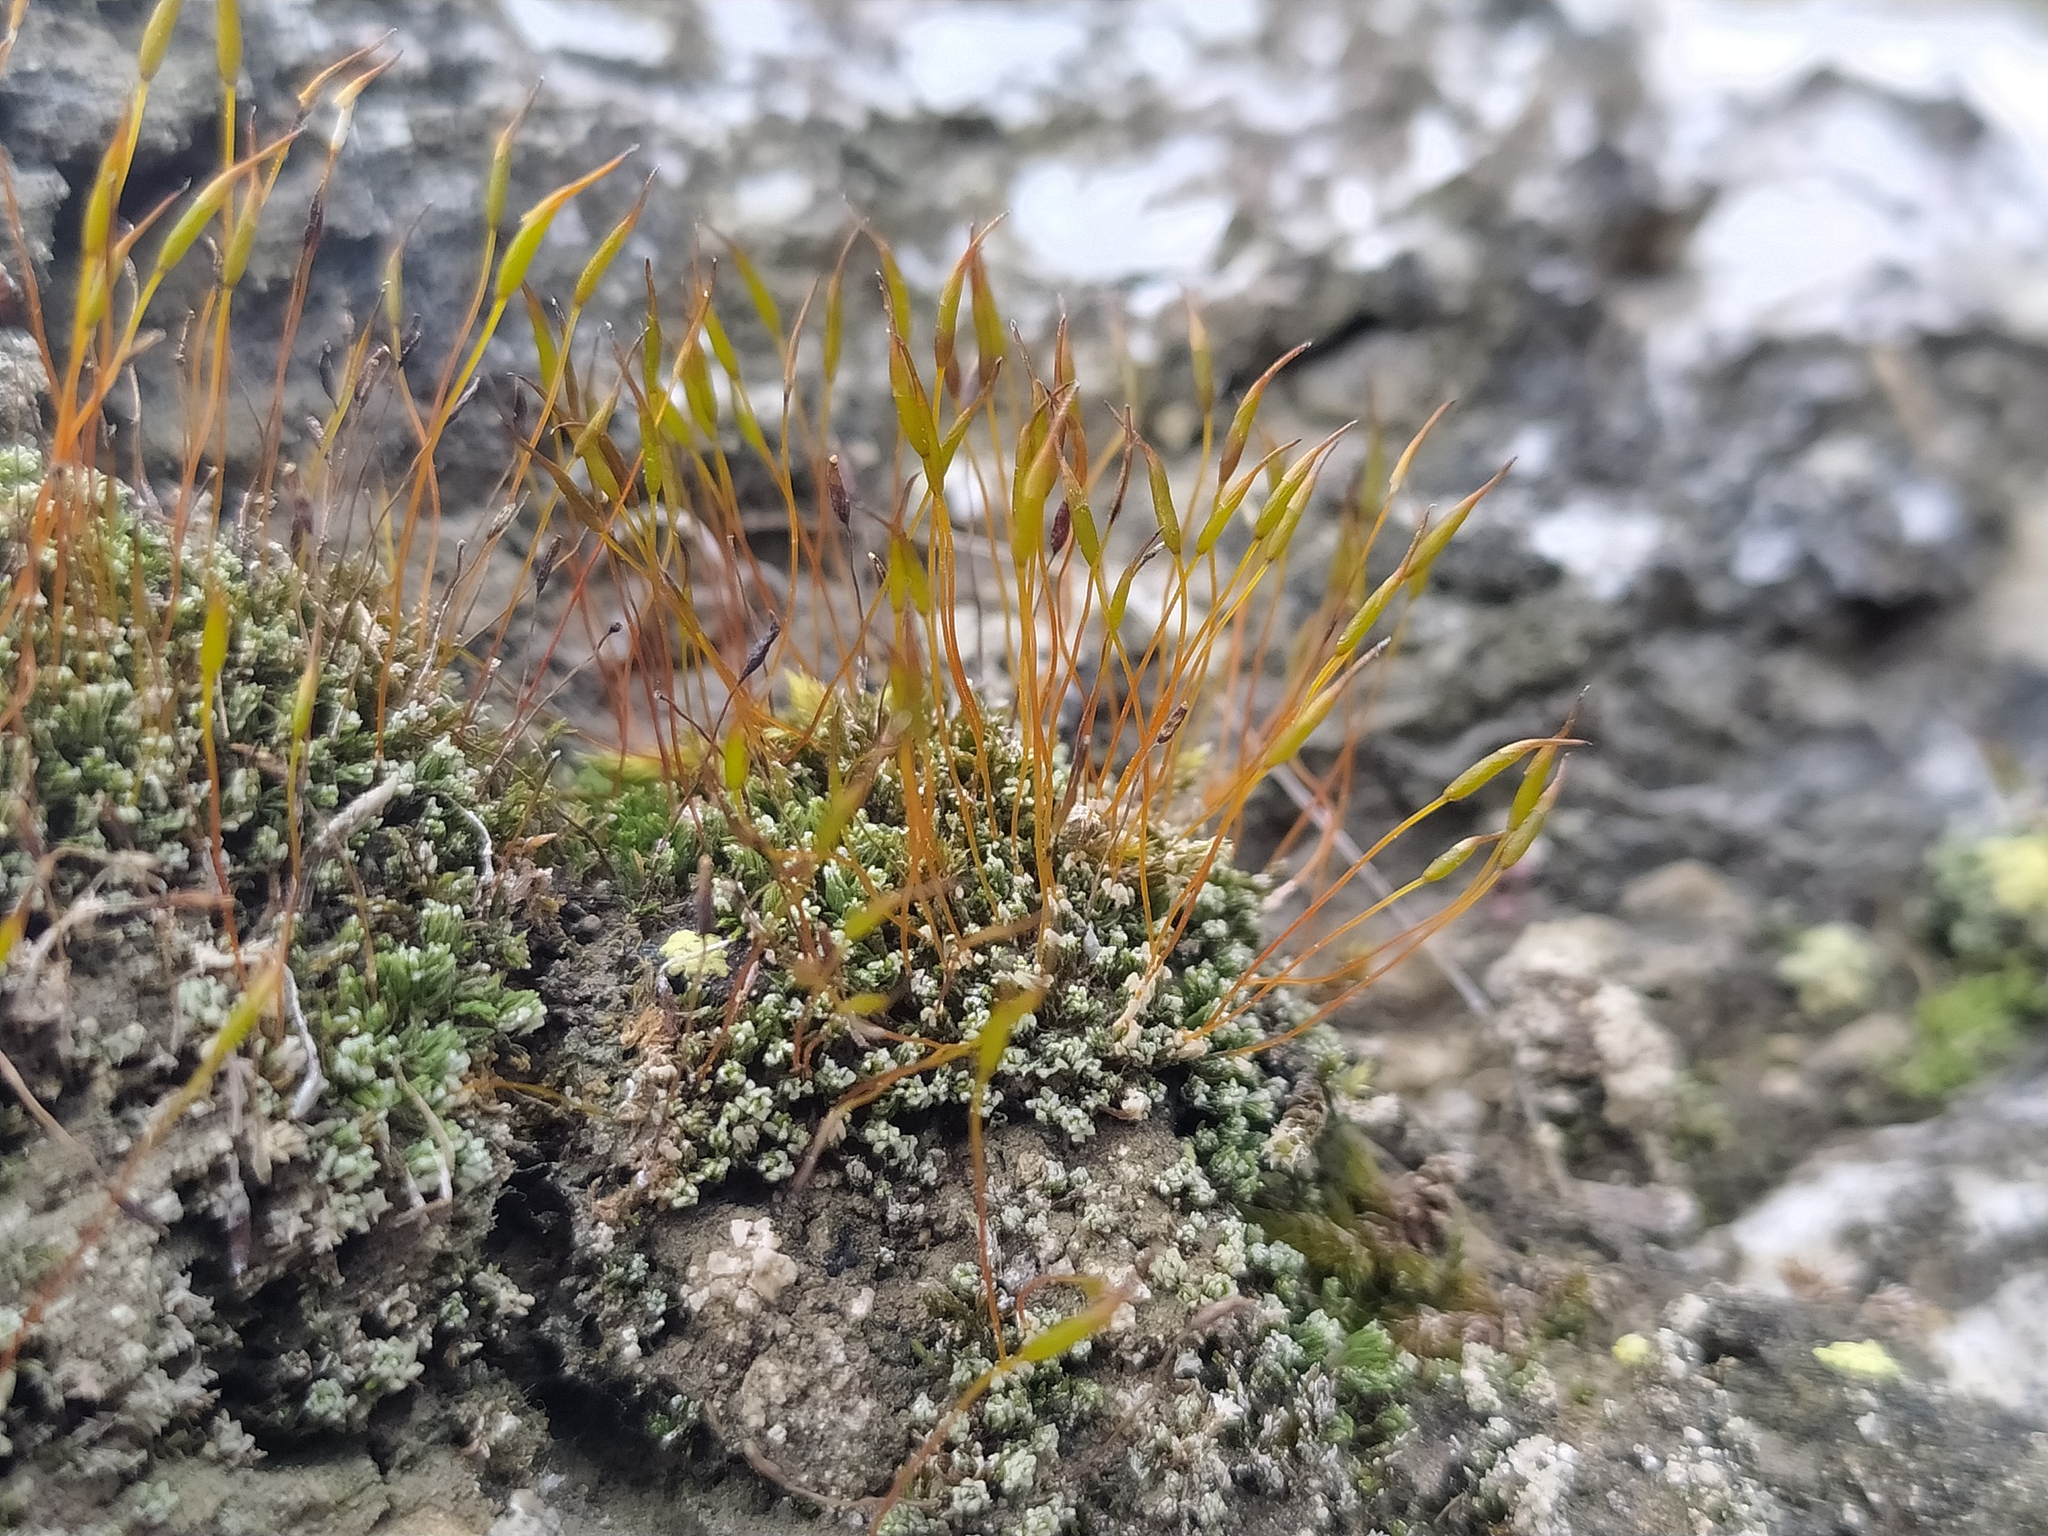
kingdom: Plantae
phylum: Bryophyta
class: Bryopsida
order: Pottiales
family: Pottiaceae
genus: Tortula
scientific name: Tortula revolvens
